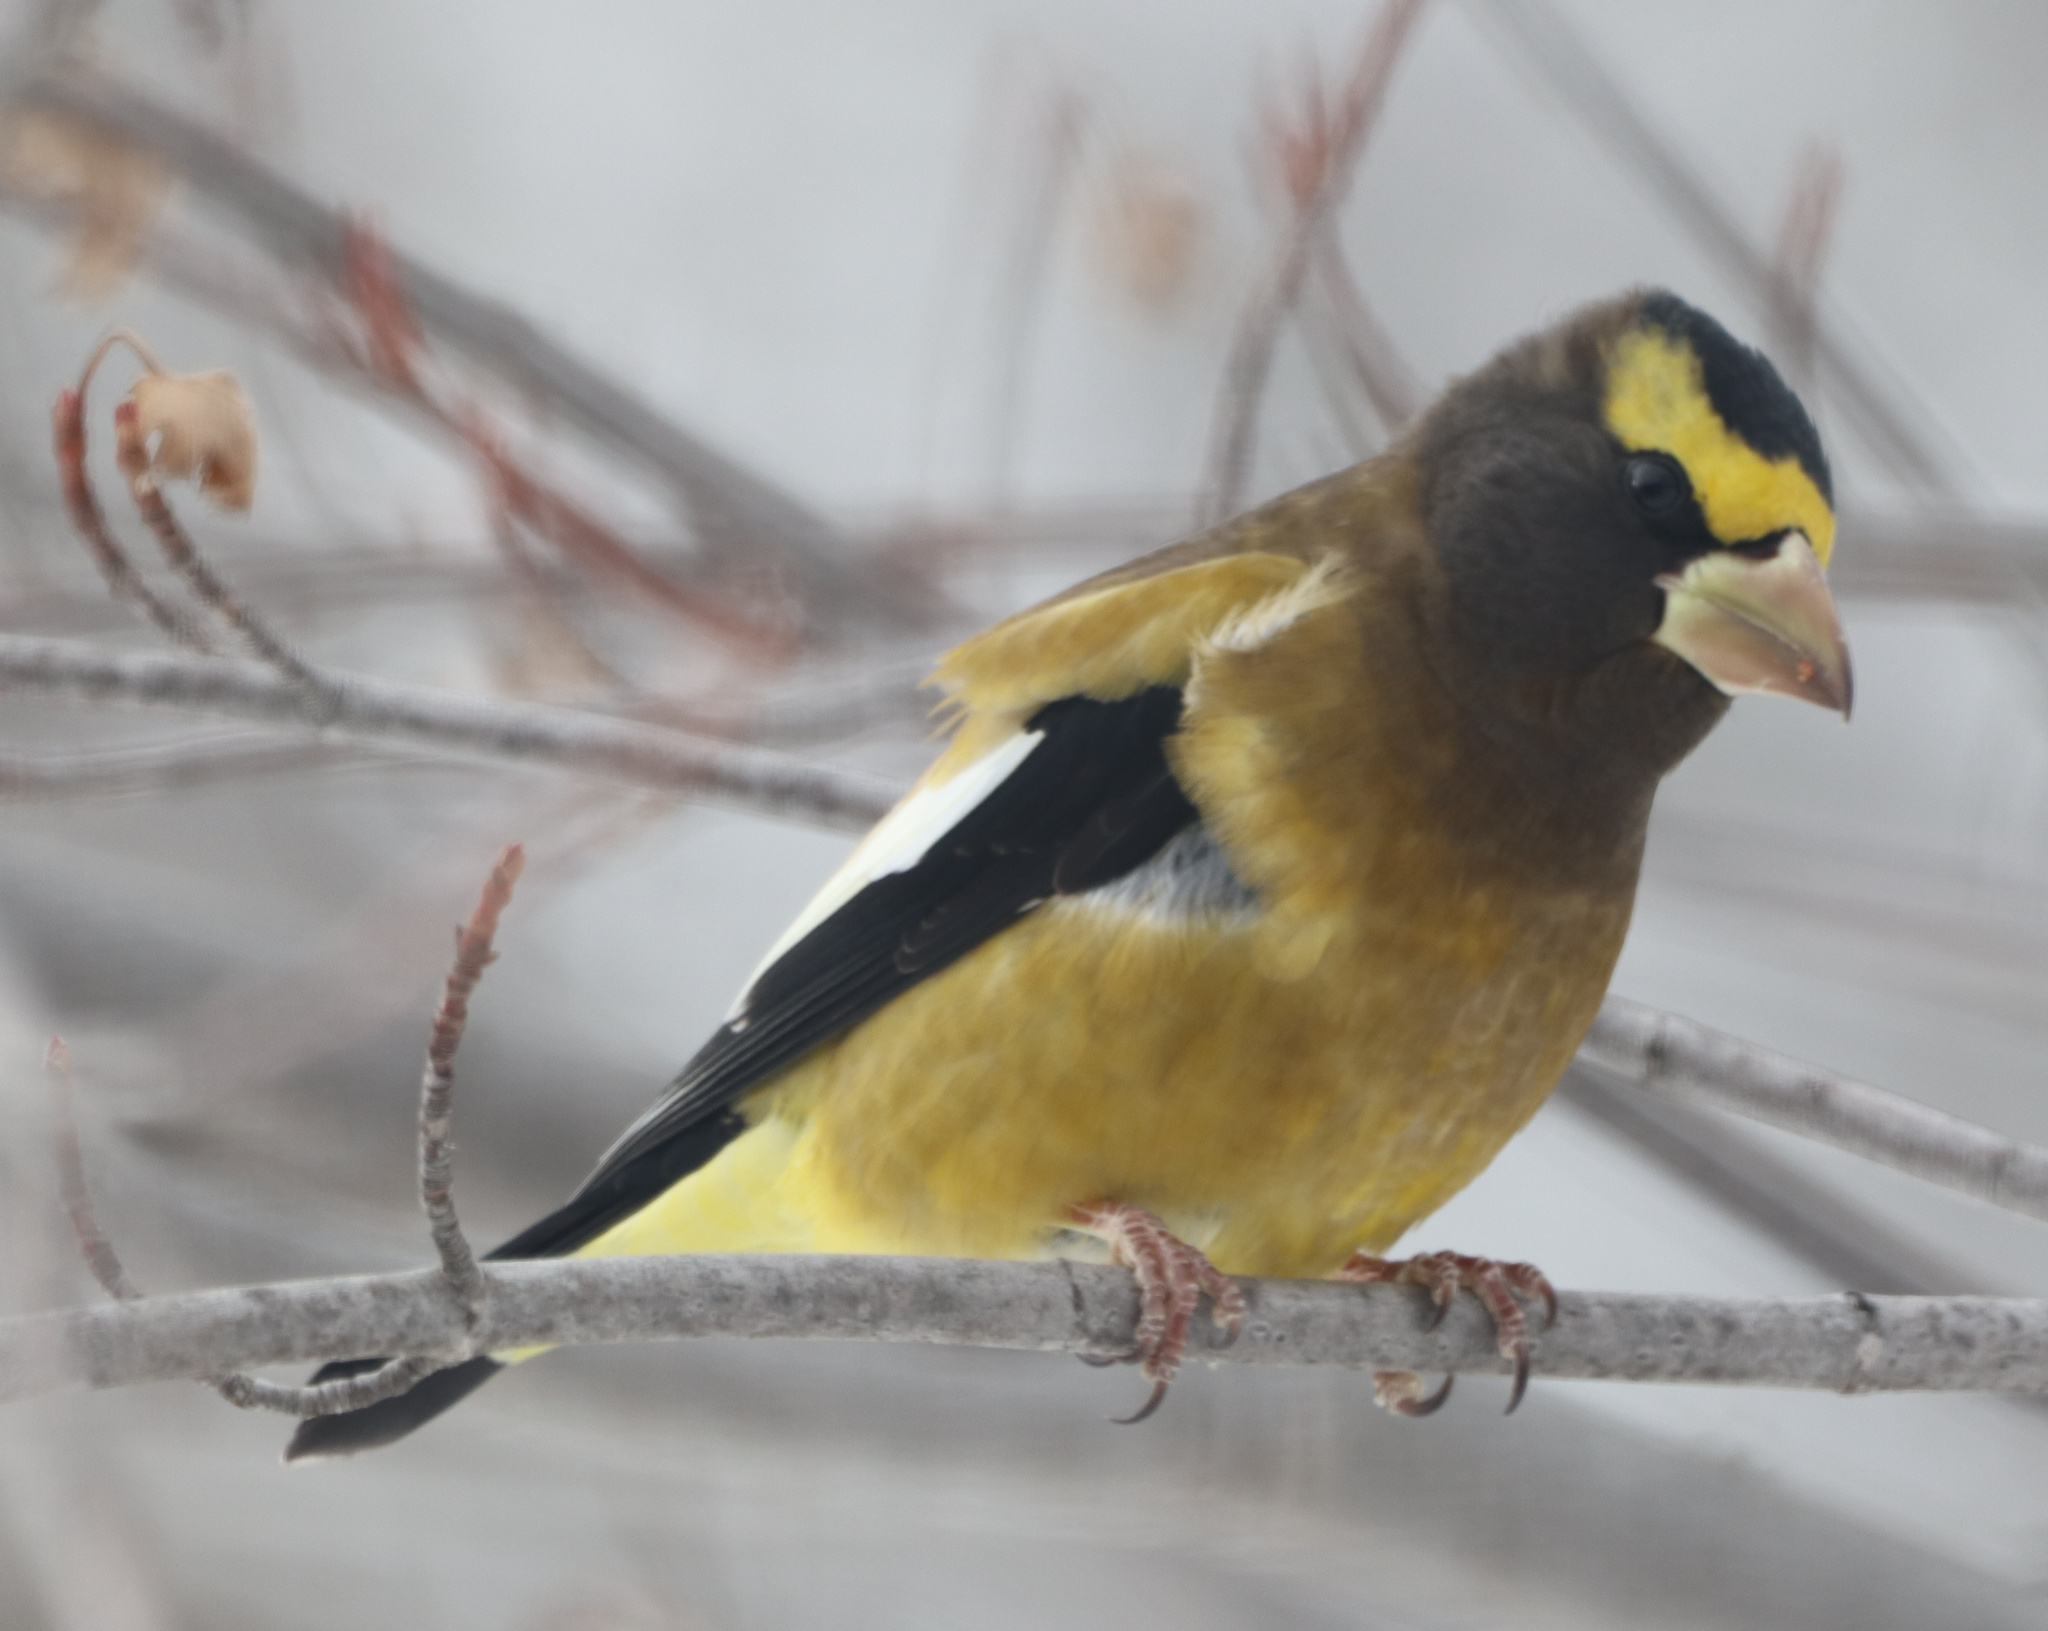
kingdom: Animalia
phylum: Chordata
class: Aves
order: Passeriformes
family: Fringillidae
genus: Hesperiphona
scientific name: Hesperiphona vespertina
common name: Evening grosbeak
